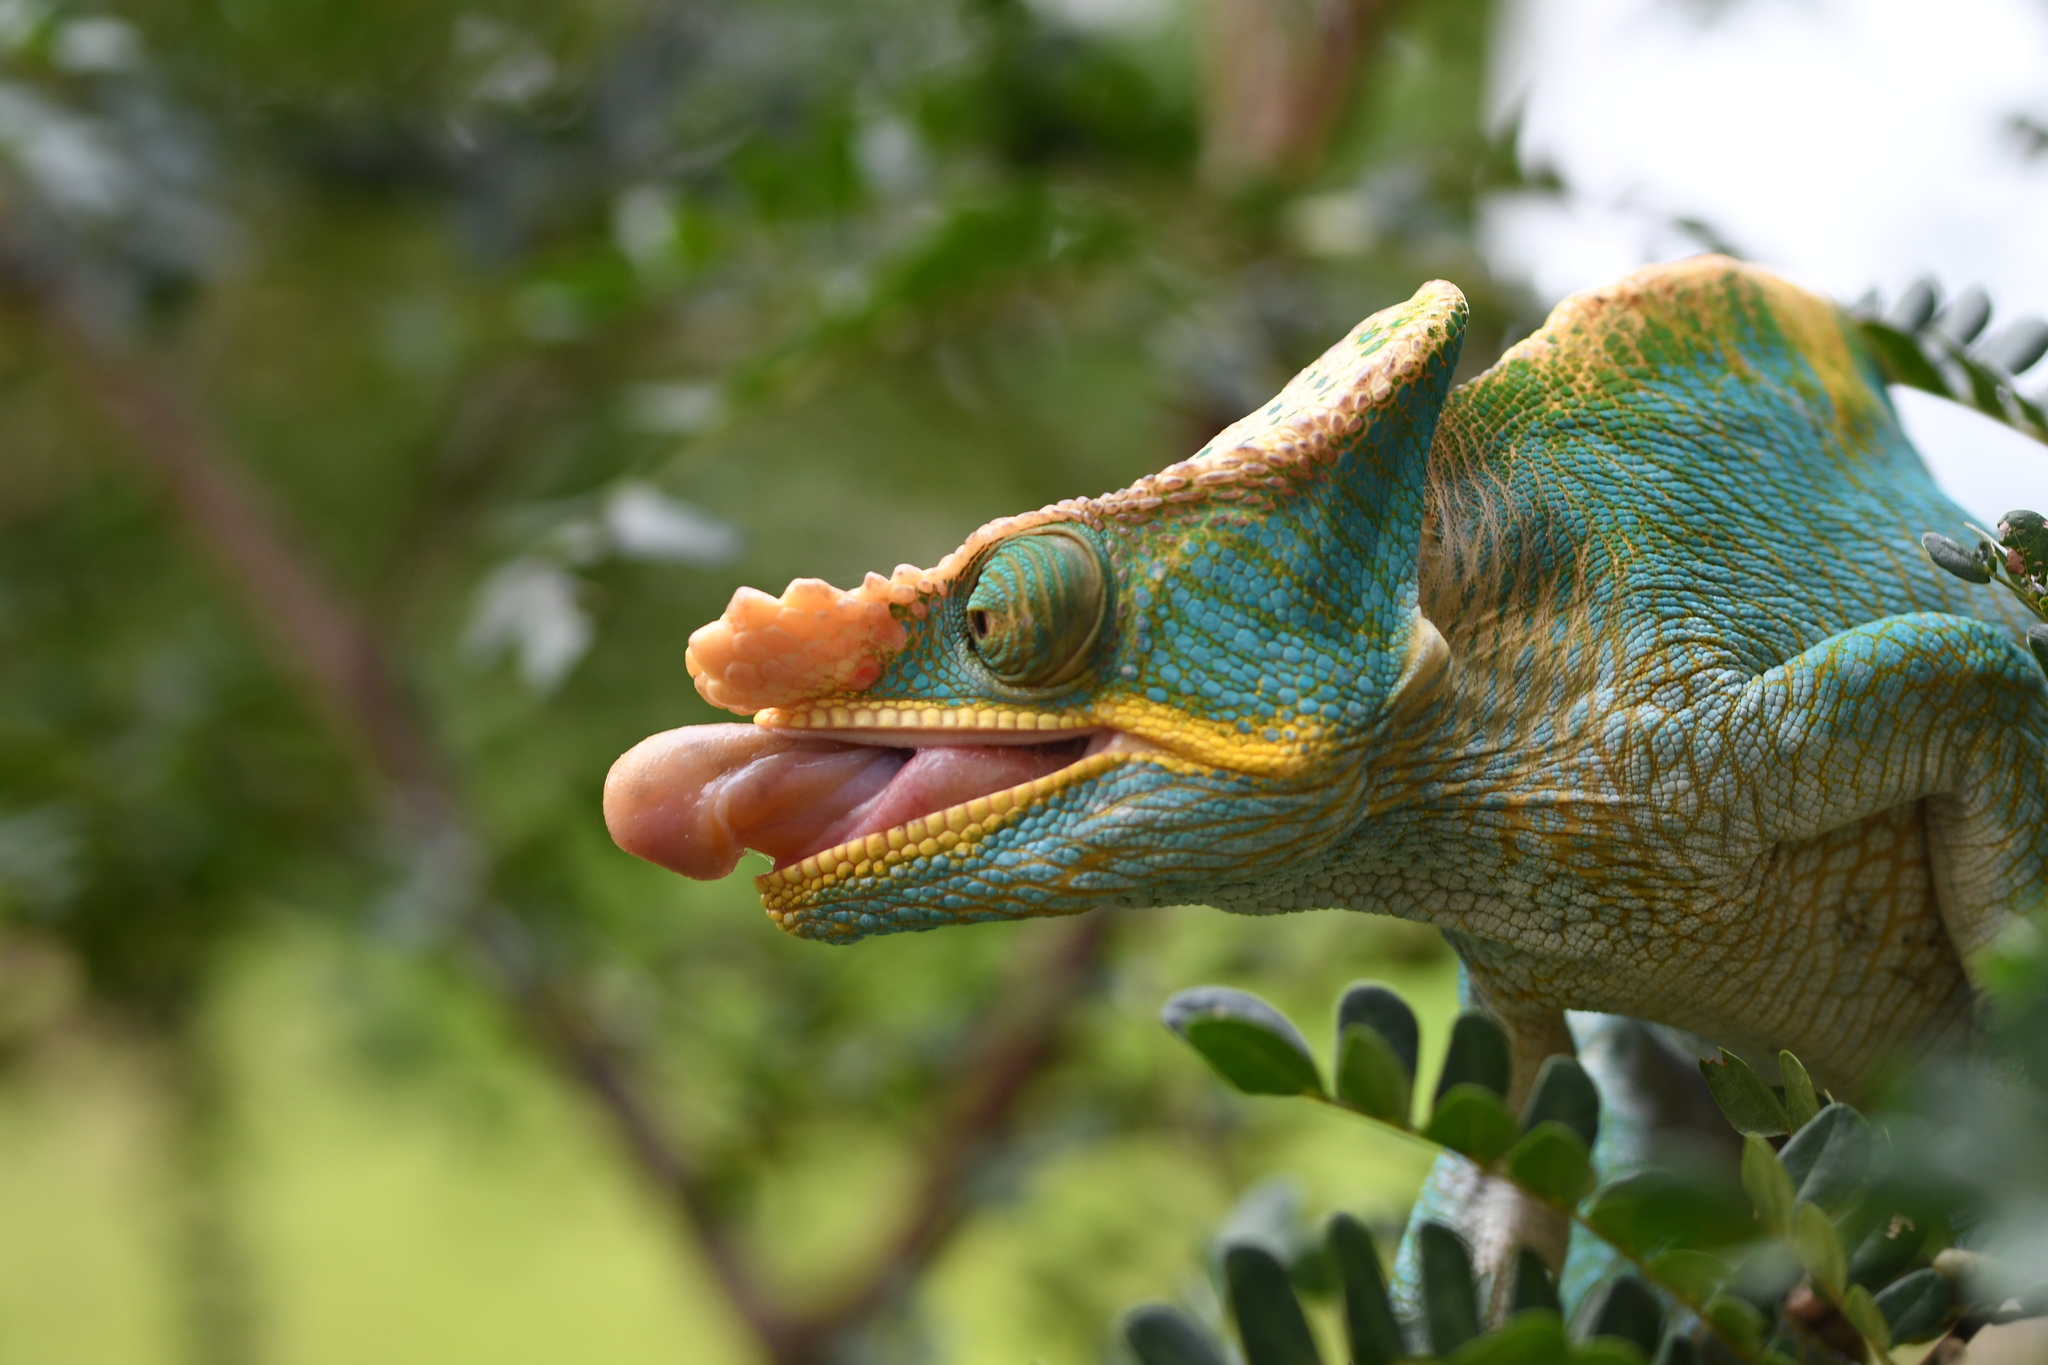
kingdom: Animalia
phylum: Chordata
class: Squamata
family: Chamaeleonidae
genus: Calumma
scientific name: Calumma parsonii
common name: Parson's chameleon
